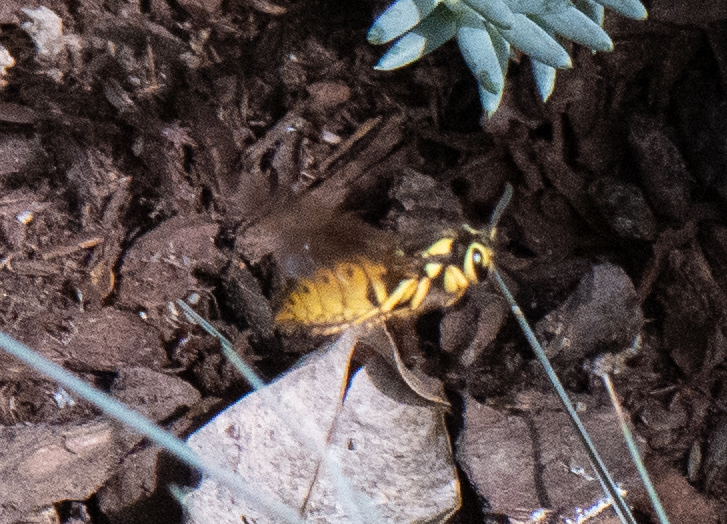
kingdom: Animalia
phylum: Arthropoda
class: Insecta
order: Hymenoptera
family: Vespidae
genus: Vespula
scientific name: Vespula pensylvanica
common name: Western yellowjacket
